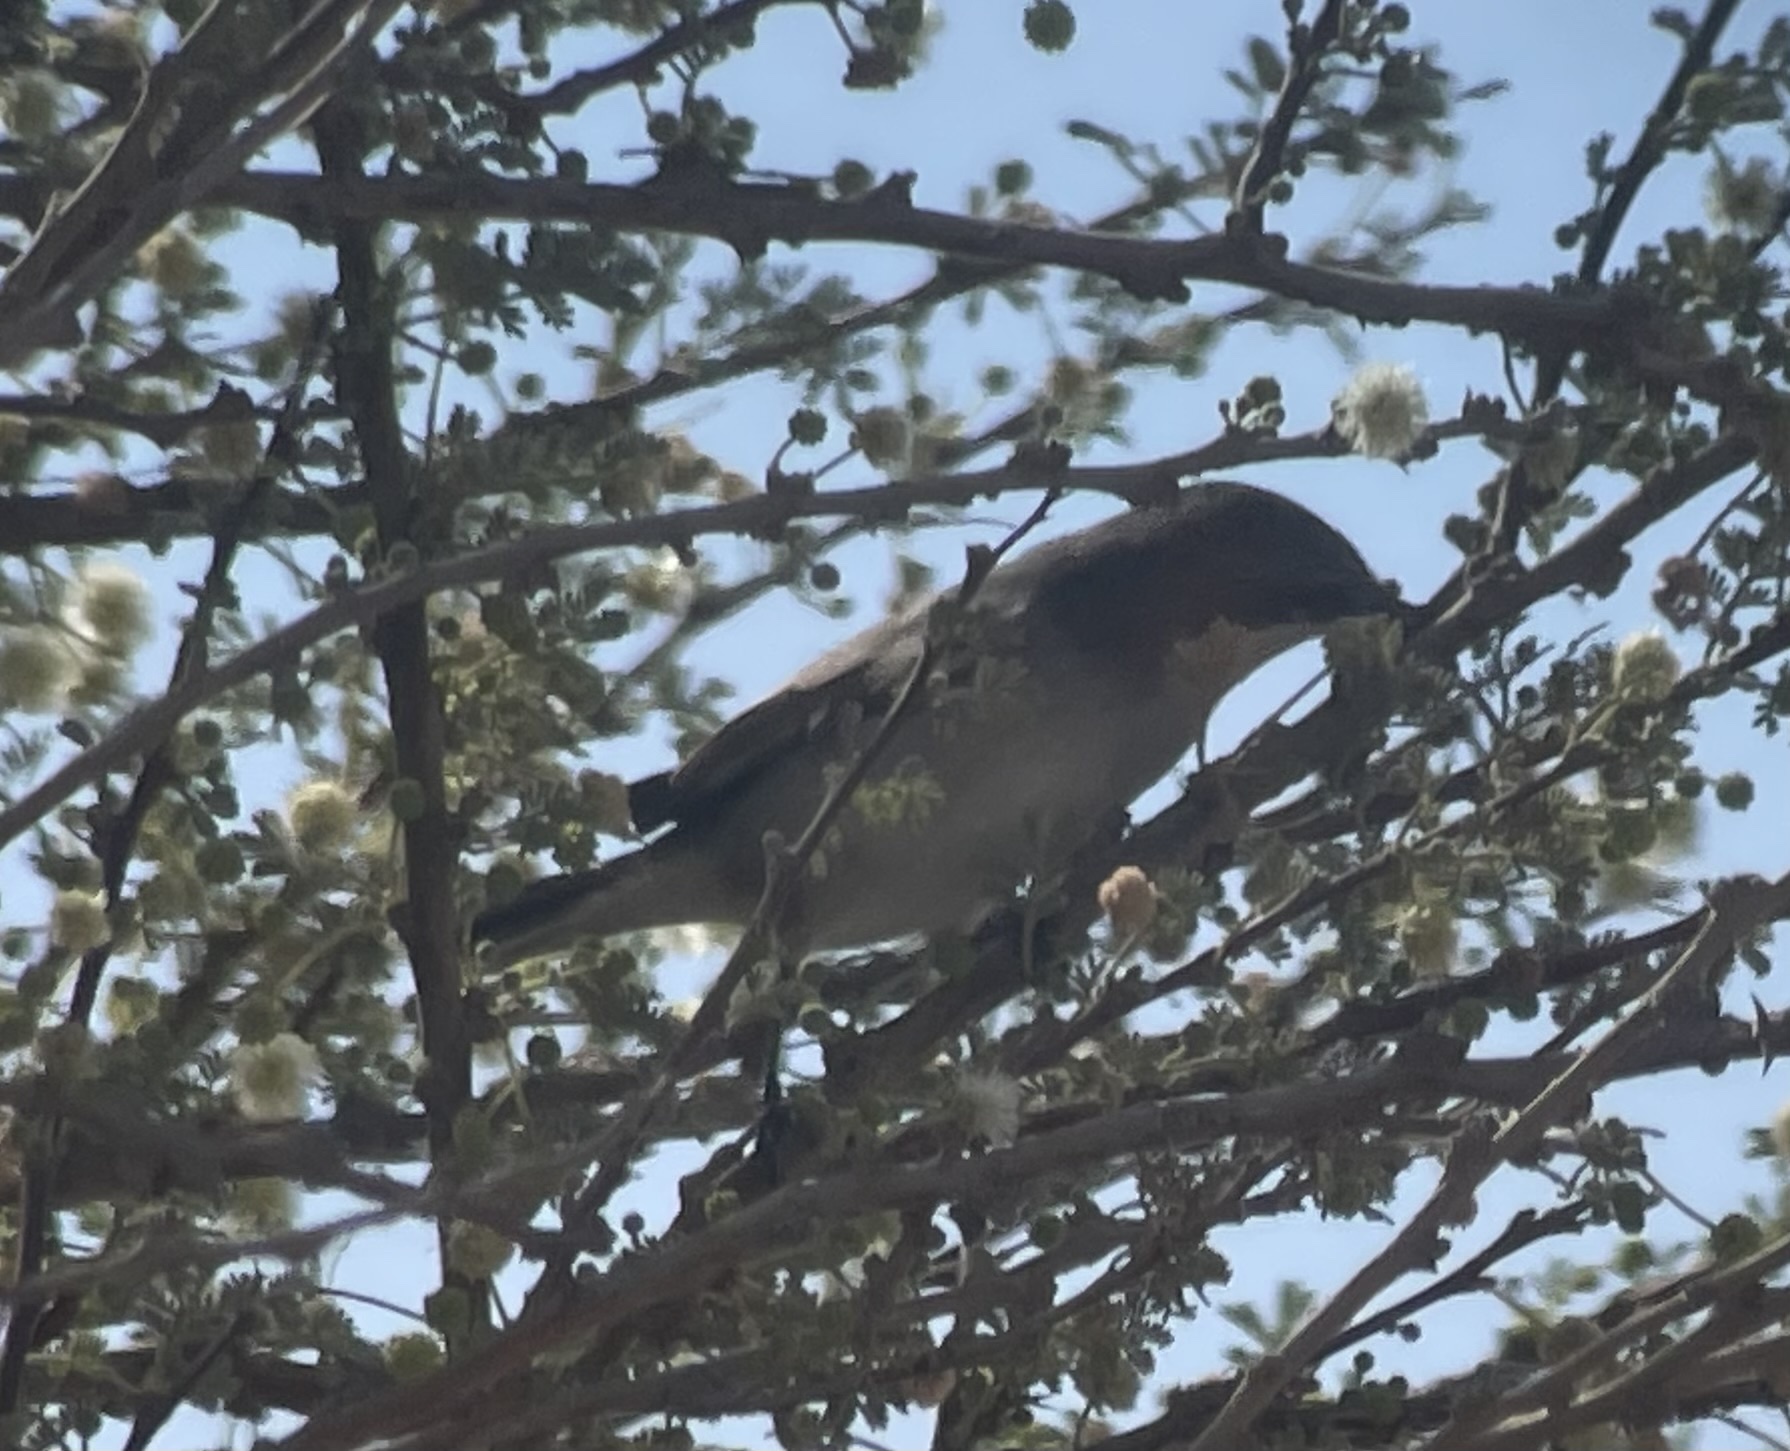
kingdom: Animalia
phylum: Chordata
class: Aves
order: Passeriformes
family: Sylviidae
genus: Sylvia
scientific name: Sylvia curruca
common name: Lesser whitethroat
